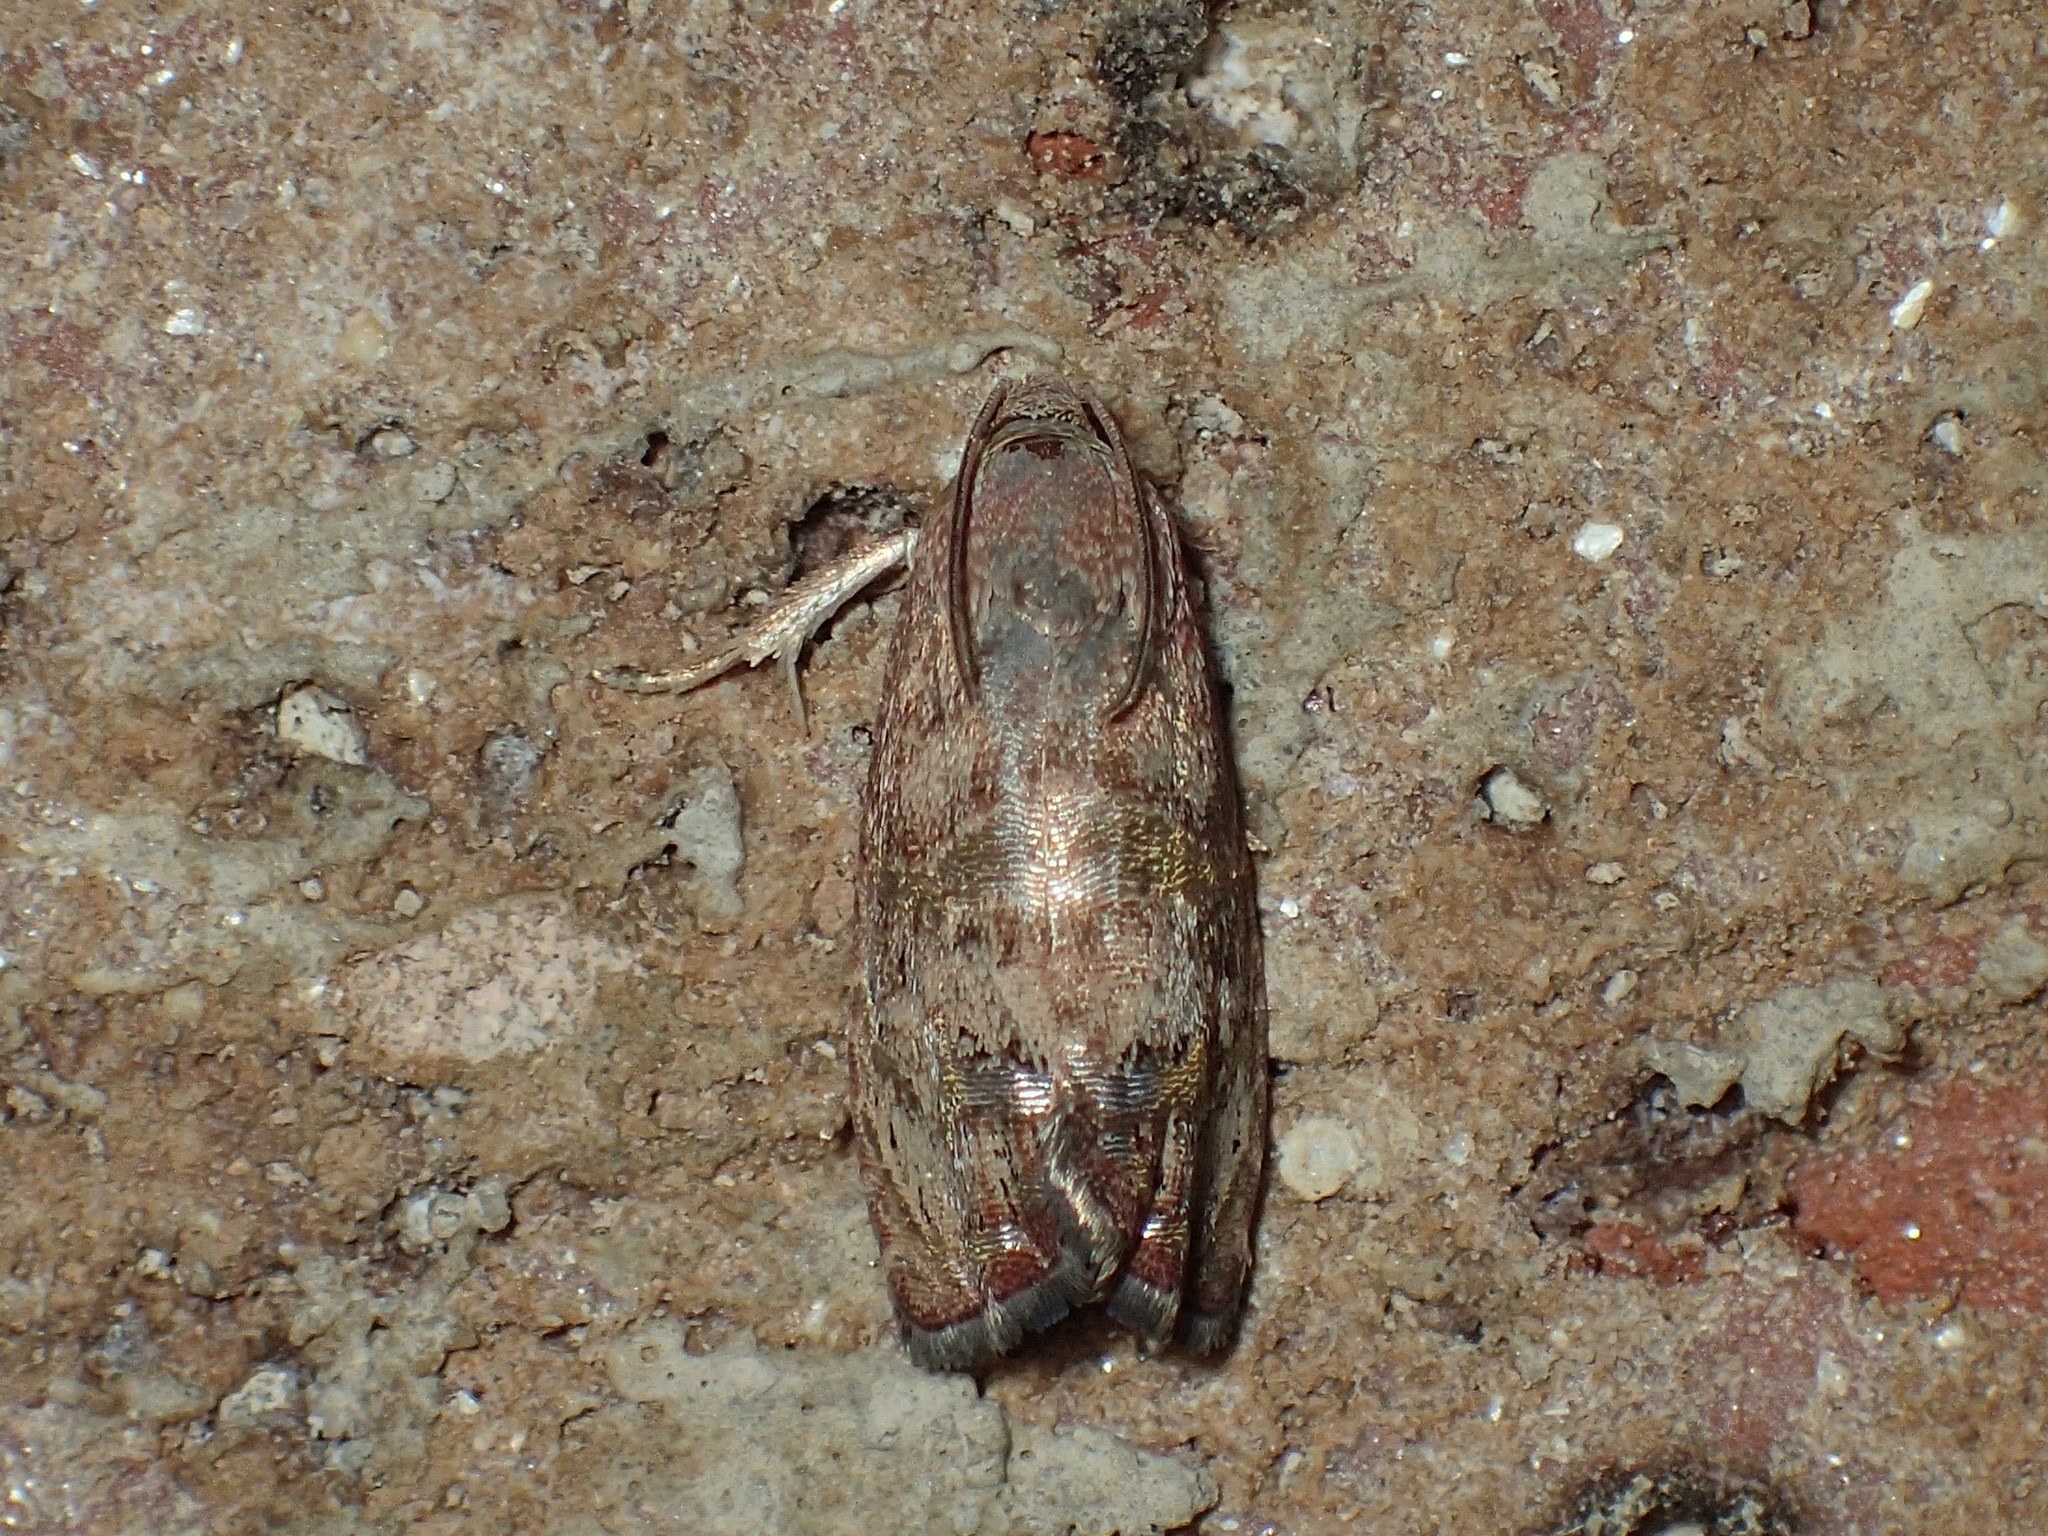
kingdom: Animalia
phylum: Arthropoda
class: Insecta
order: Lepidoptera
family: Tortricidae
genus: Cydia
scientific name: Cydia latiferreana
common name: Filbertworm moth
